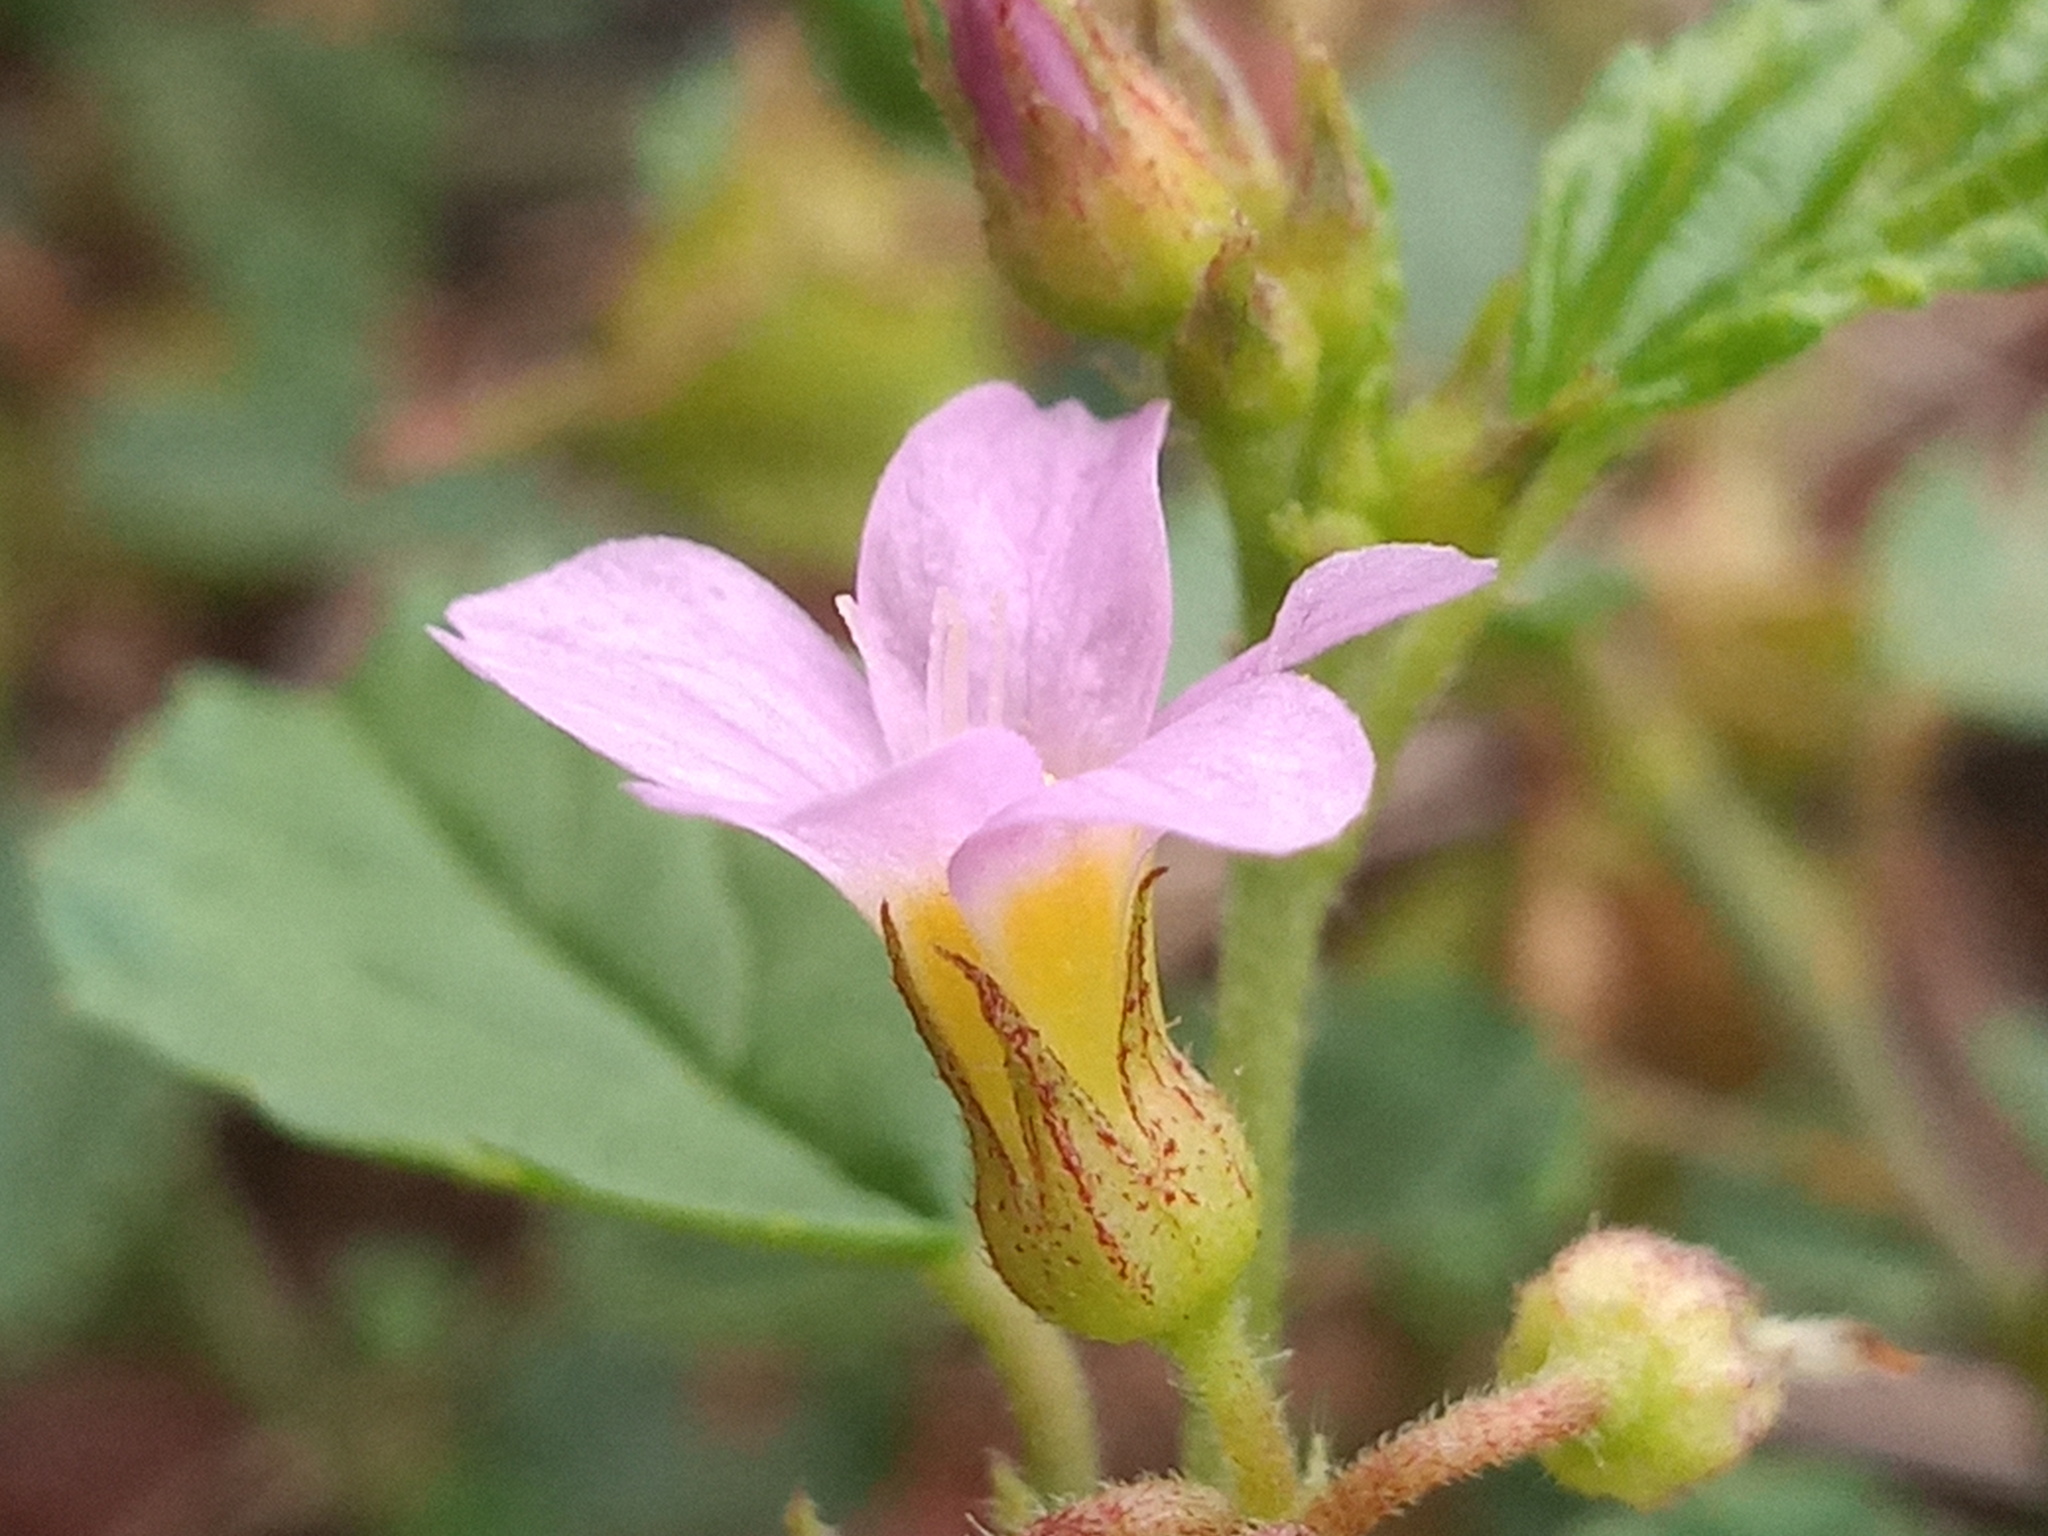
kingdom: Plantae
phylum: Tracheophyta
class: Magnoliopsida
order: Malvales
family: Malvaceae
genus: Melochia
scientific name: Melochia pyramidata
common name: Pyramidflower
